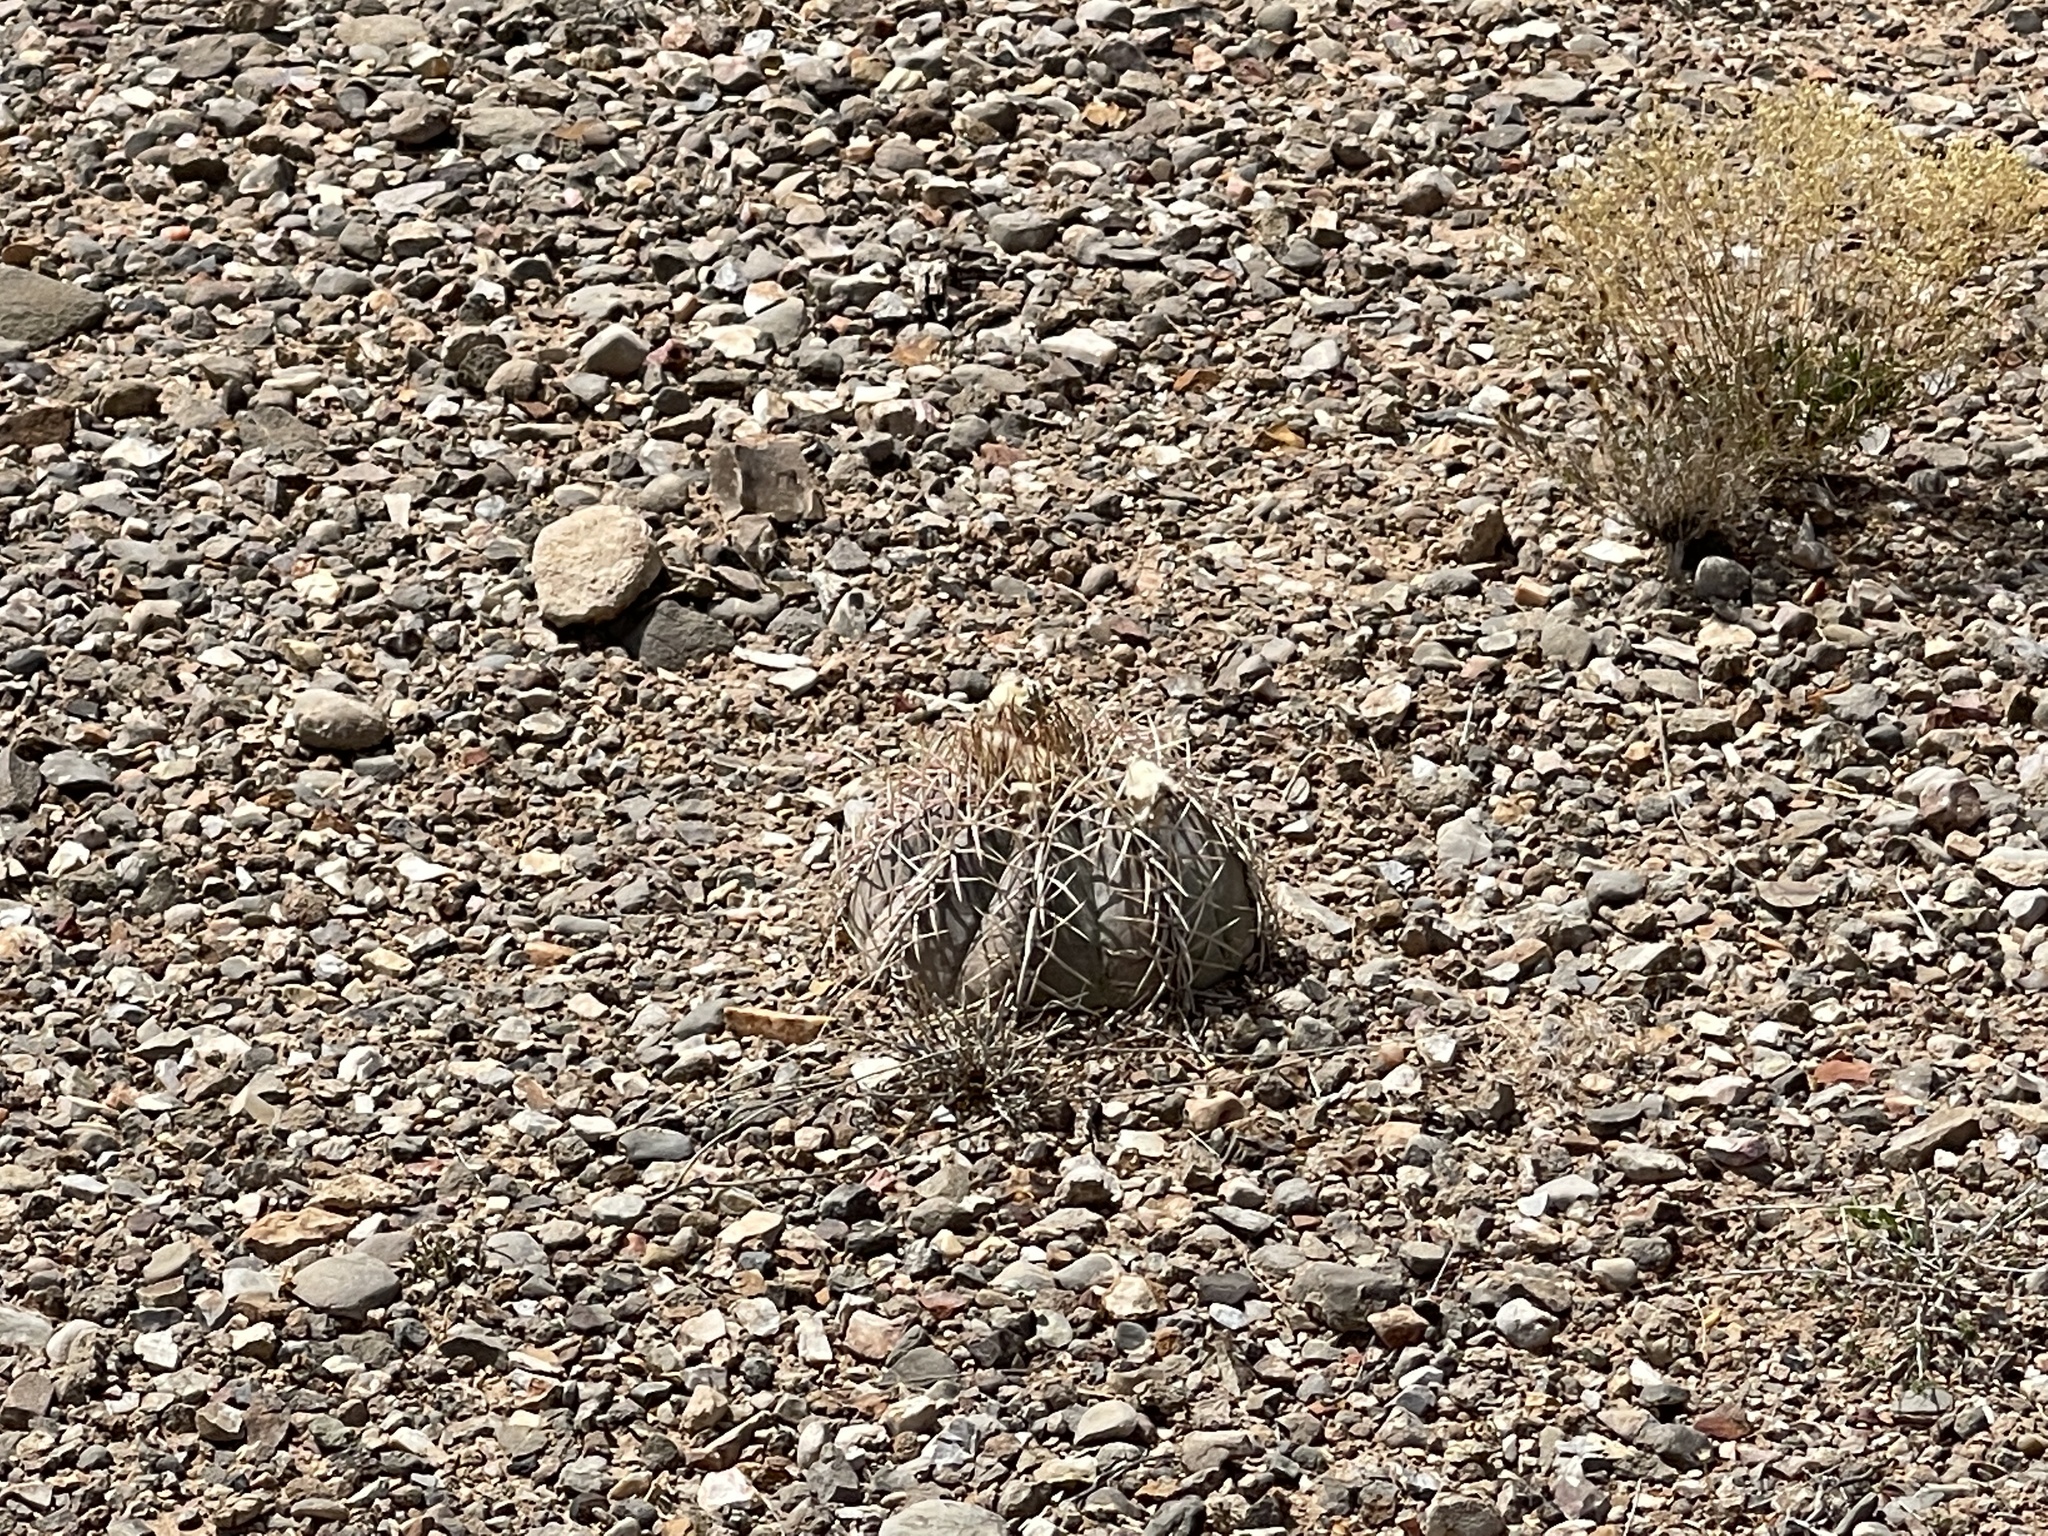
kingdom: Plantae
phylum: Tracheophyta
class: Magnoliopsida
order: Caryophyllales
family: Cactaceae
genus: Echinocactus
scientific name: Echinocactus horizonthalonius
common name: Devilshead
